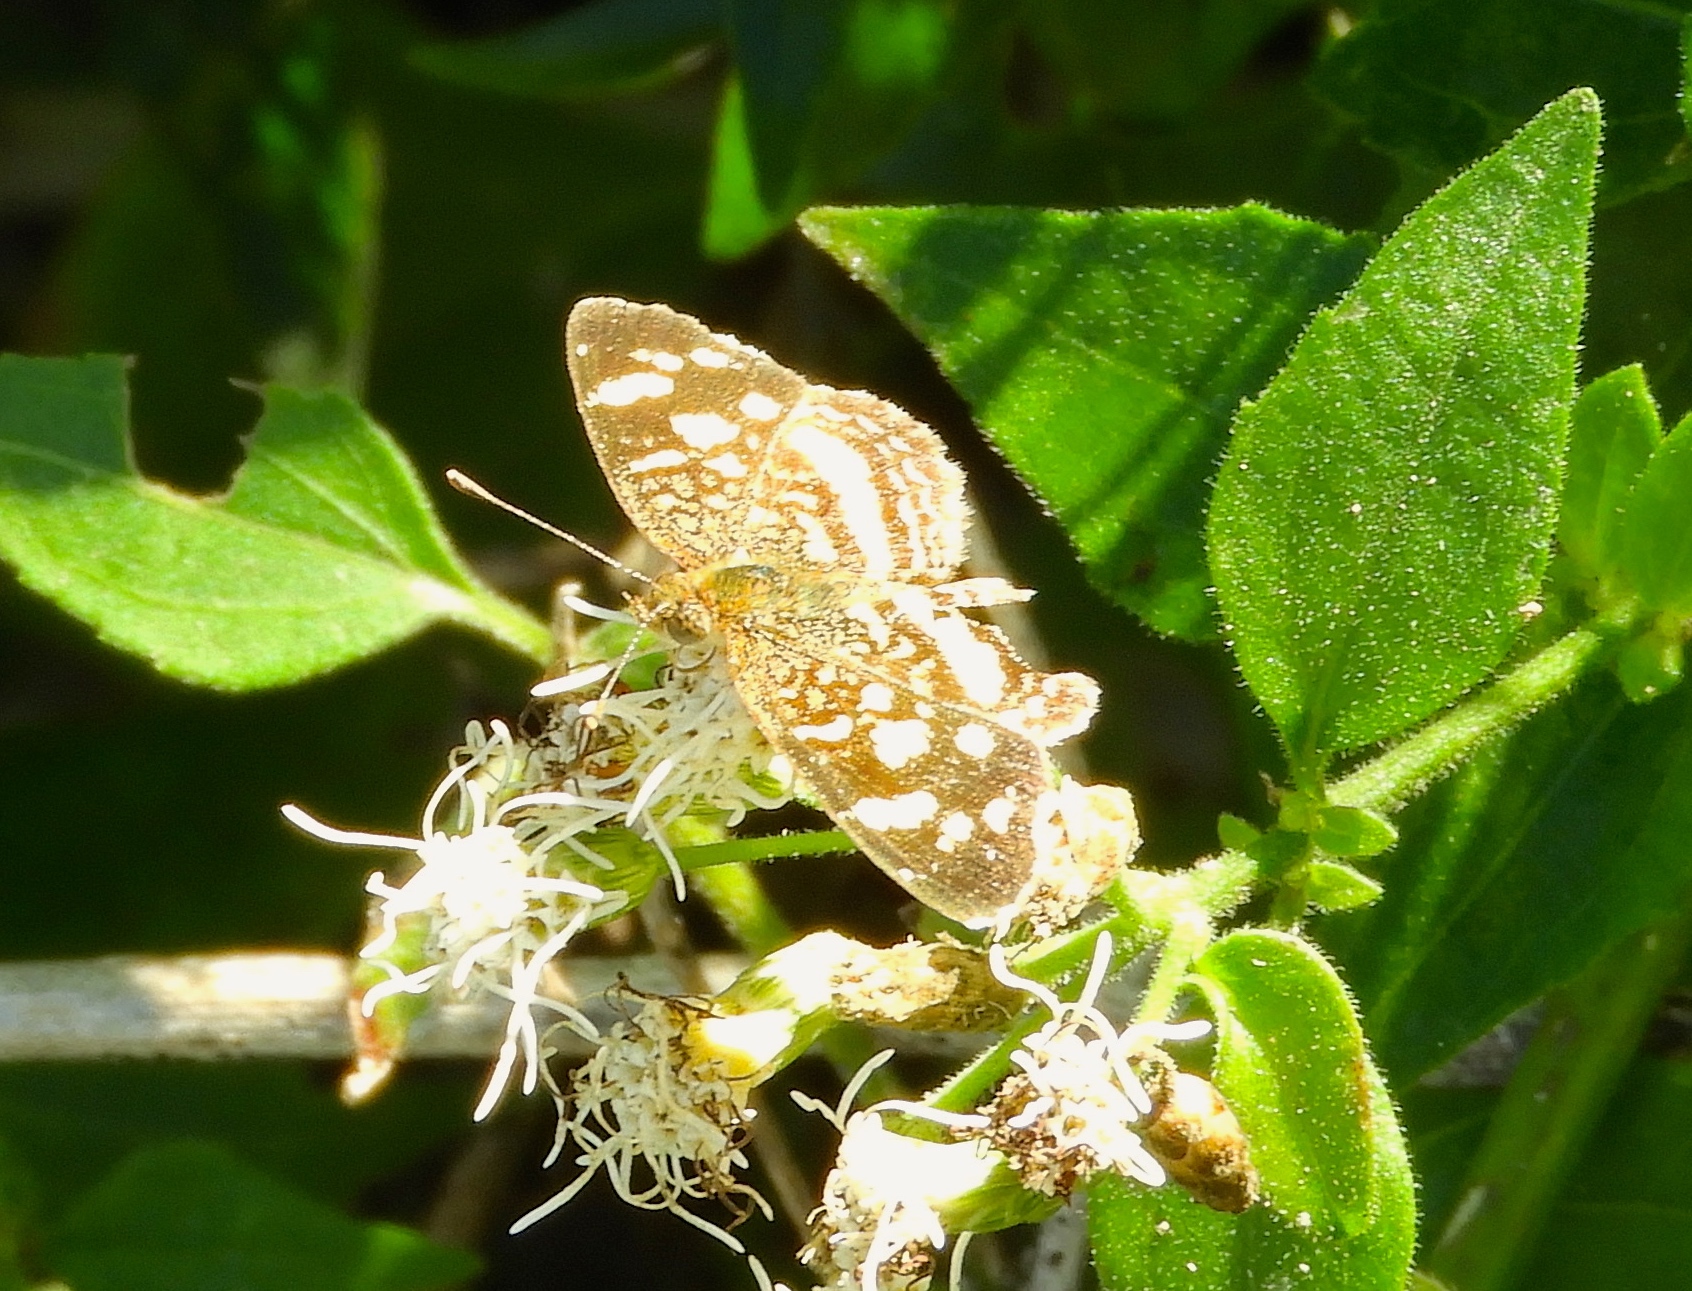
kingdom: Animalia
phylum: Arthropoda
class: Insecta
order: Lepidoptera
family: Nymphalidae
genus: Anthanassa
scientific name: Anthanassa tulcis
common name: Pale-banded crescent
